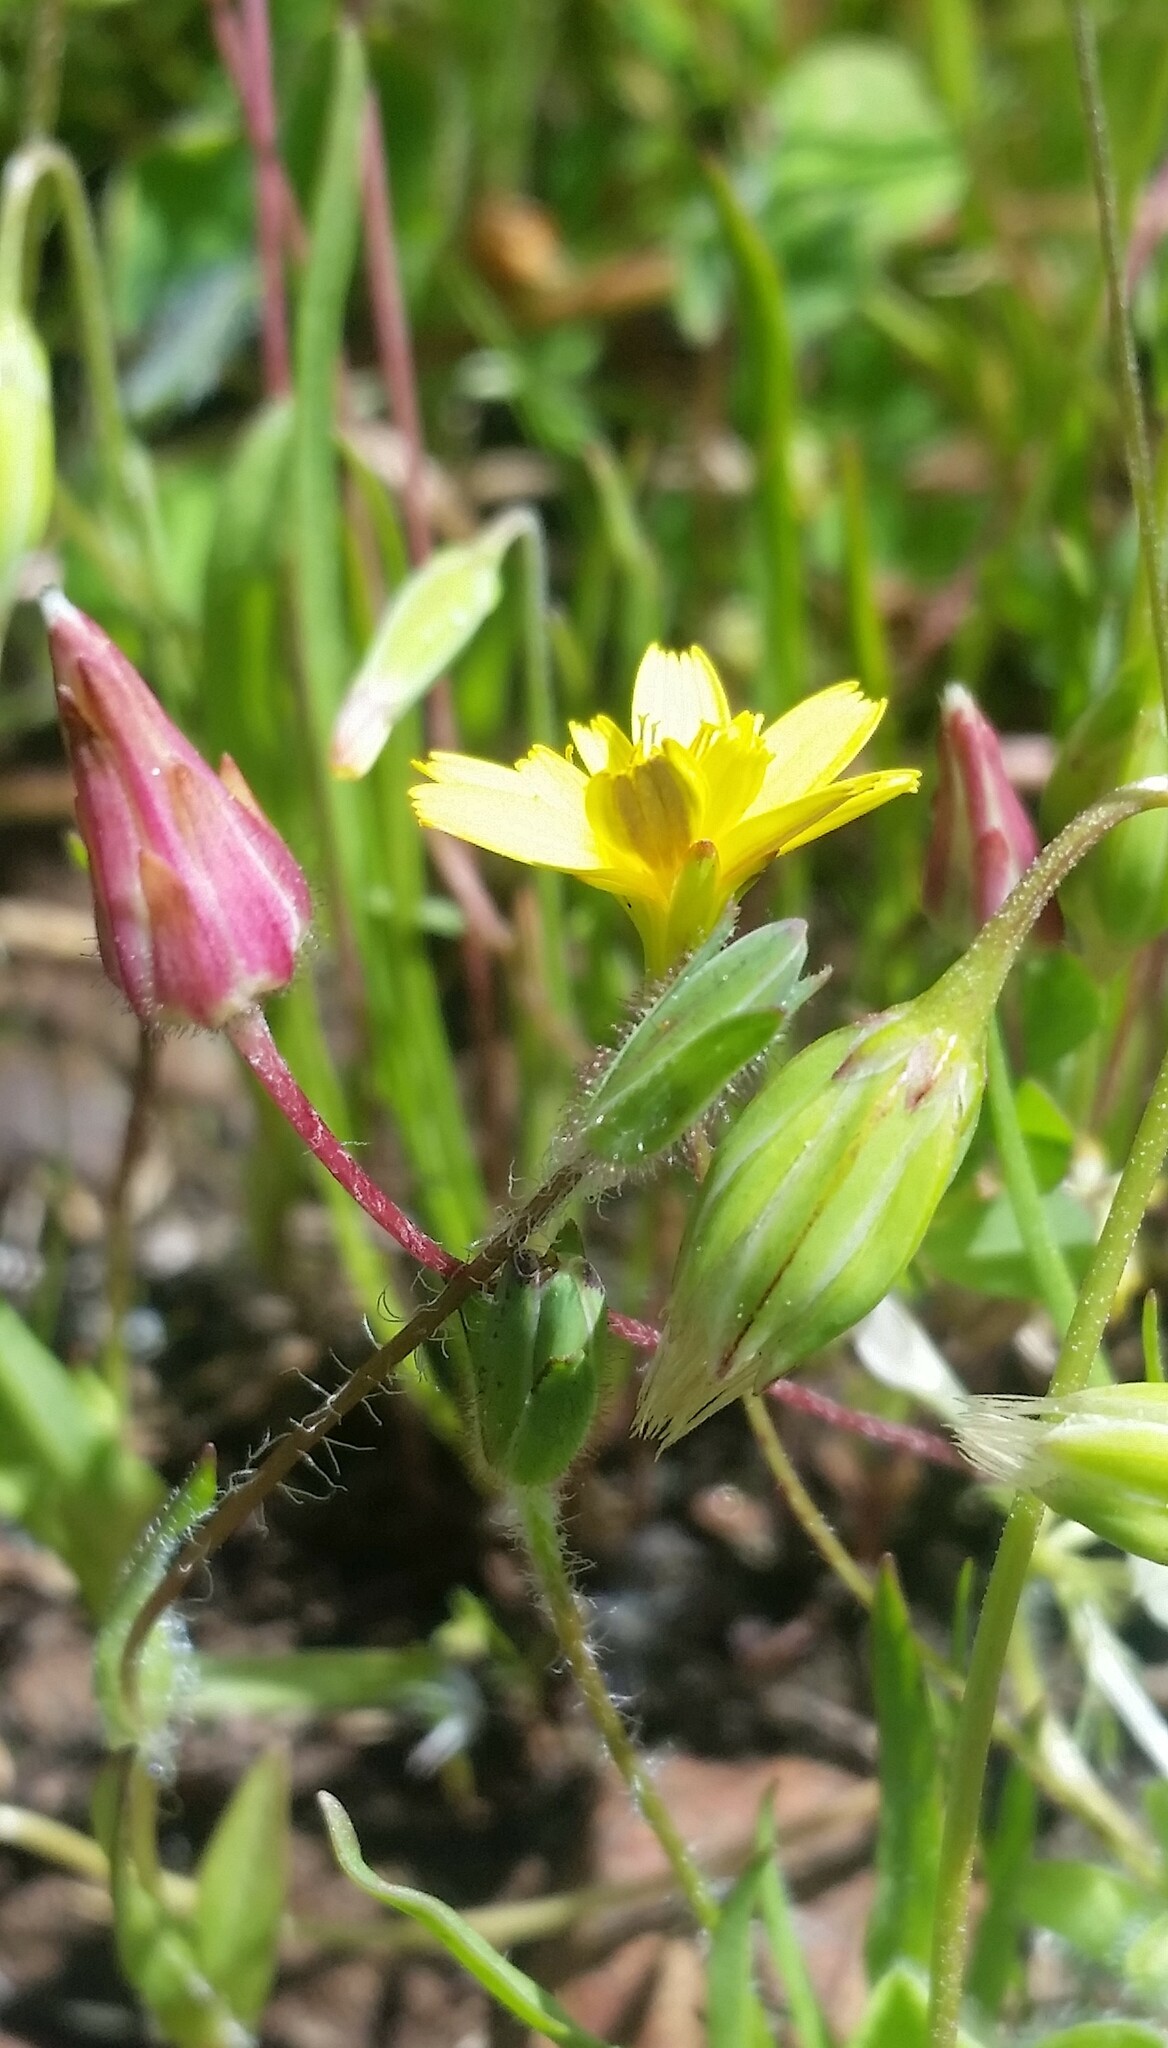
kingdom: Plantae
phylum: Tracheophyta
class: Magnoliopsida
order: Asterales
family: Asteraceae
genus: Hedypnois
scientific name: Hedypnois rhagadioloides
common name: Cretan weed
